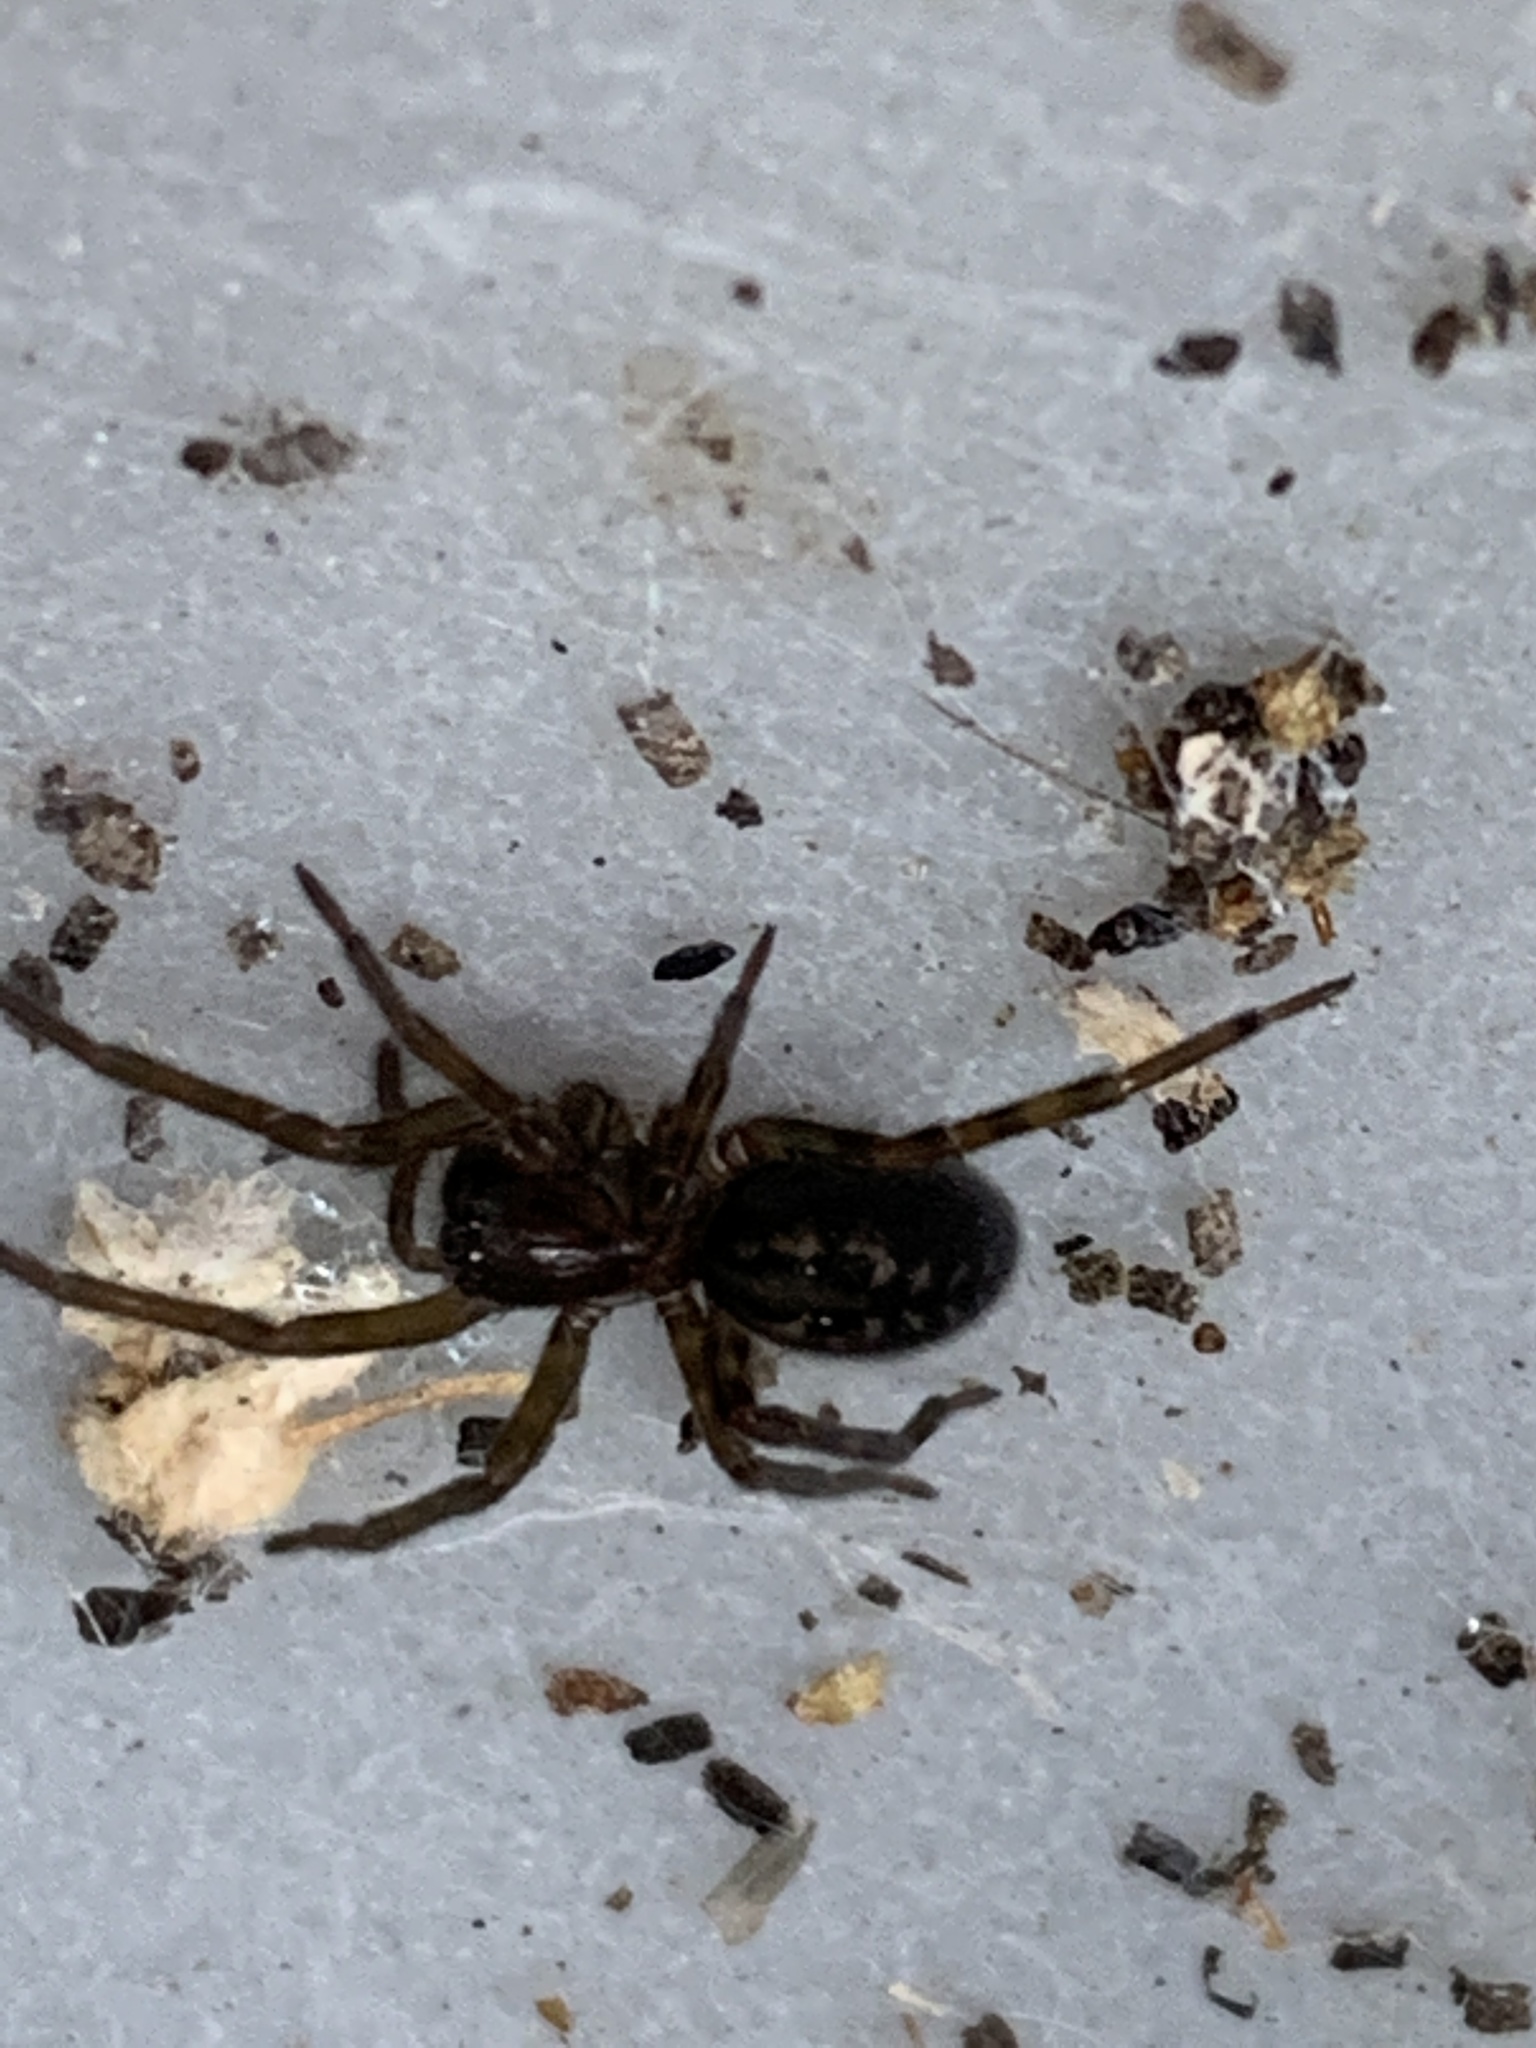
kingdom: Animalia
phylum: Arthropoda
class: Arachnida
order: Araneae
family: Amaurobiidae
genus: Amaurobius
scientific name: Amaurobius ferox
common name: Black laceweaver
